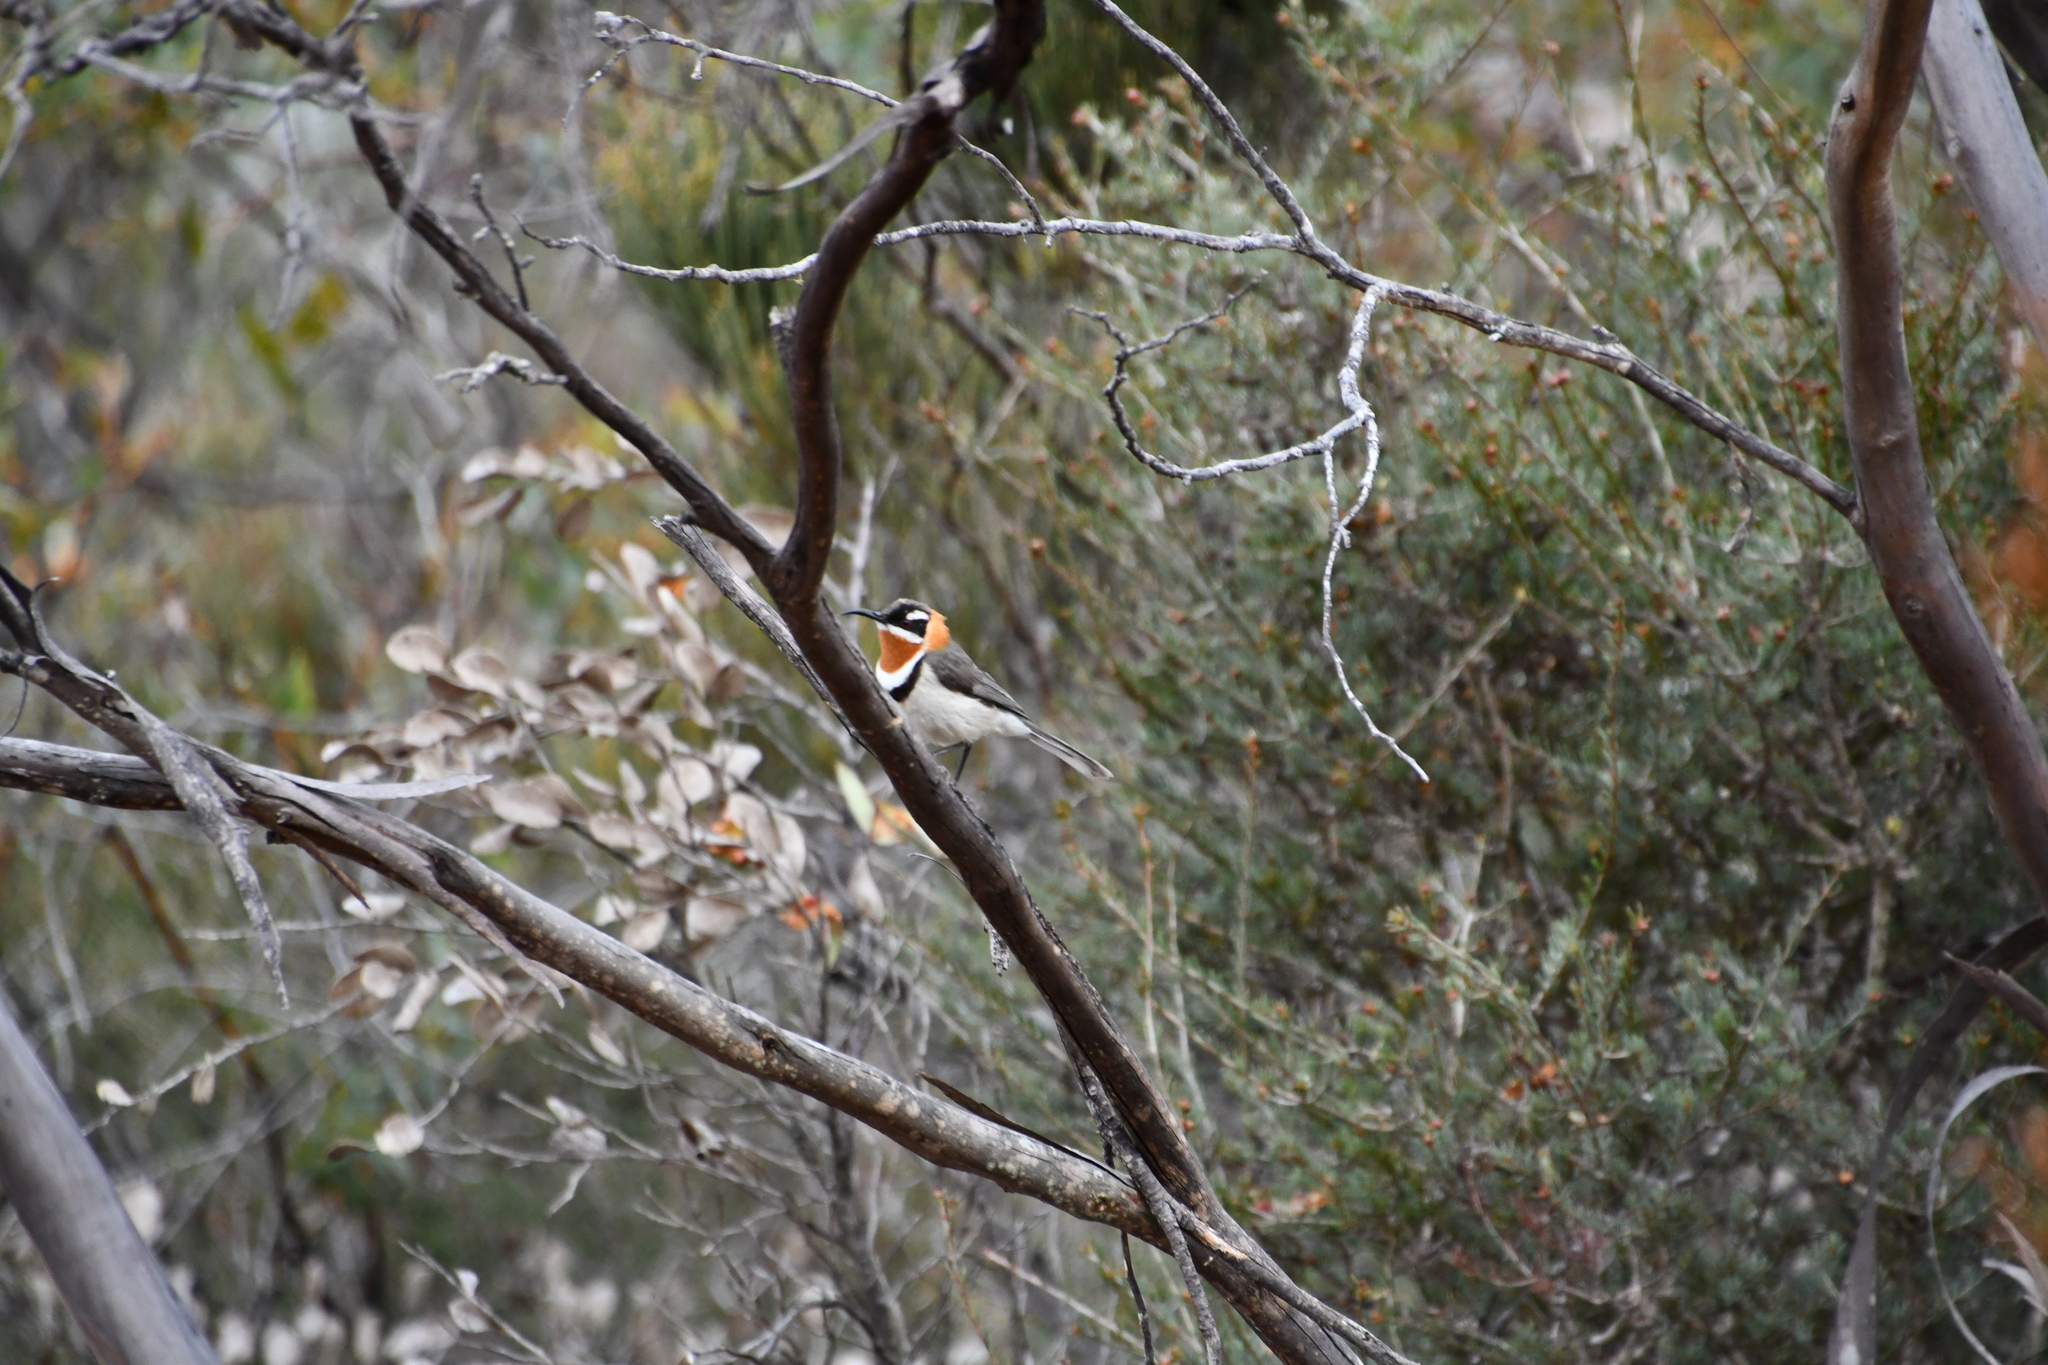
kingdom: Animalia
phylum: Chordata
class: Aves
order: Passeriformes
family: Meliphagidae
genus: Acanthorhynchus
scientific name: Acanthorhynchus superciliosus
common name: Western spinebill
